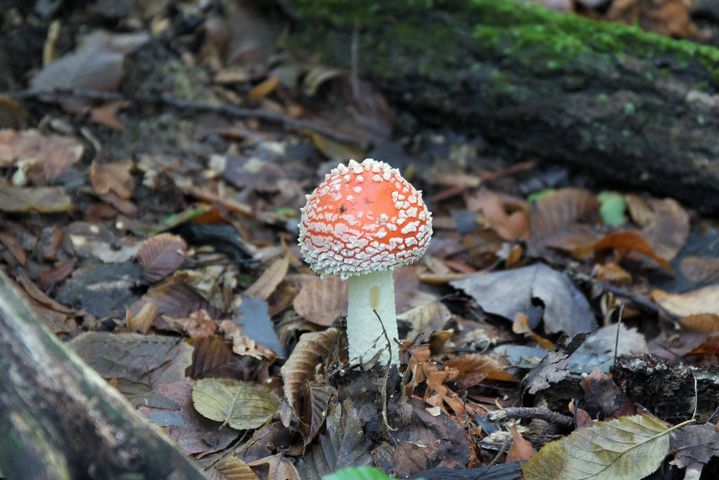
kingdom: Fungi
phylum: Basidiomycota
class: Agaricomycetes
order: Agaricales
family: Amanitaceae
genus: Amanita
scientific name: Amanita muscaria
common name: Fly agaric
